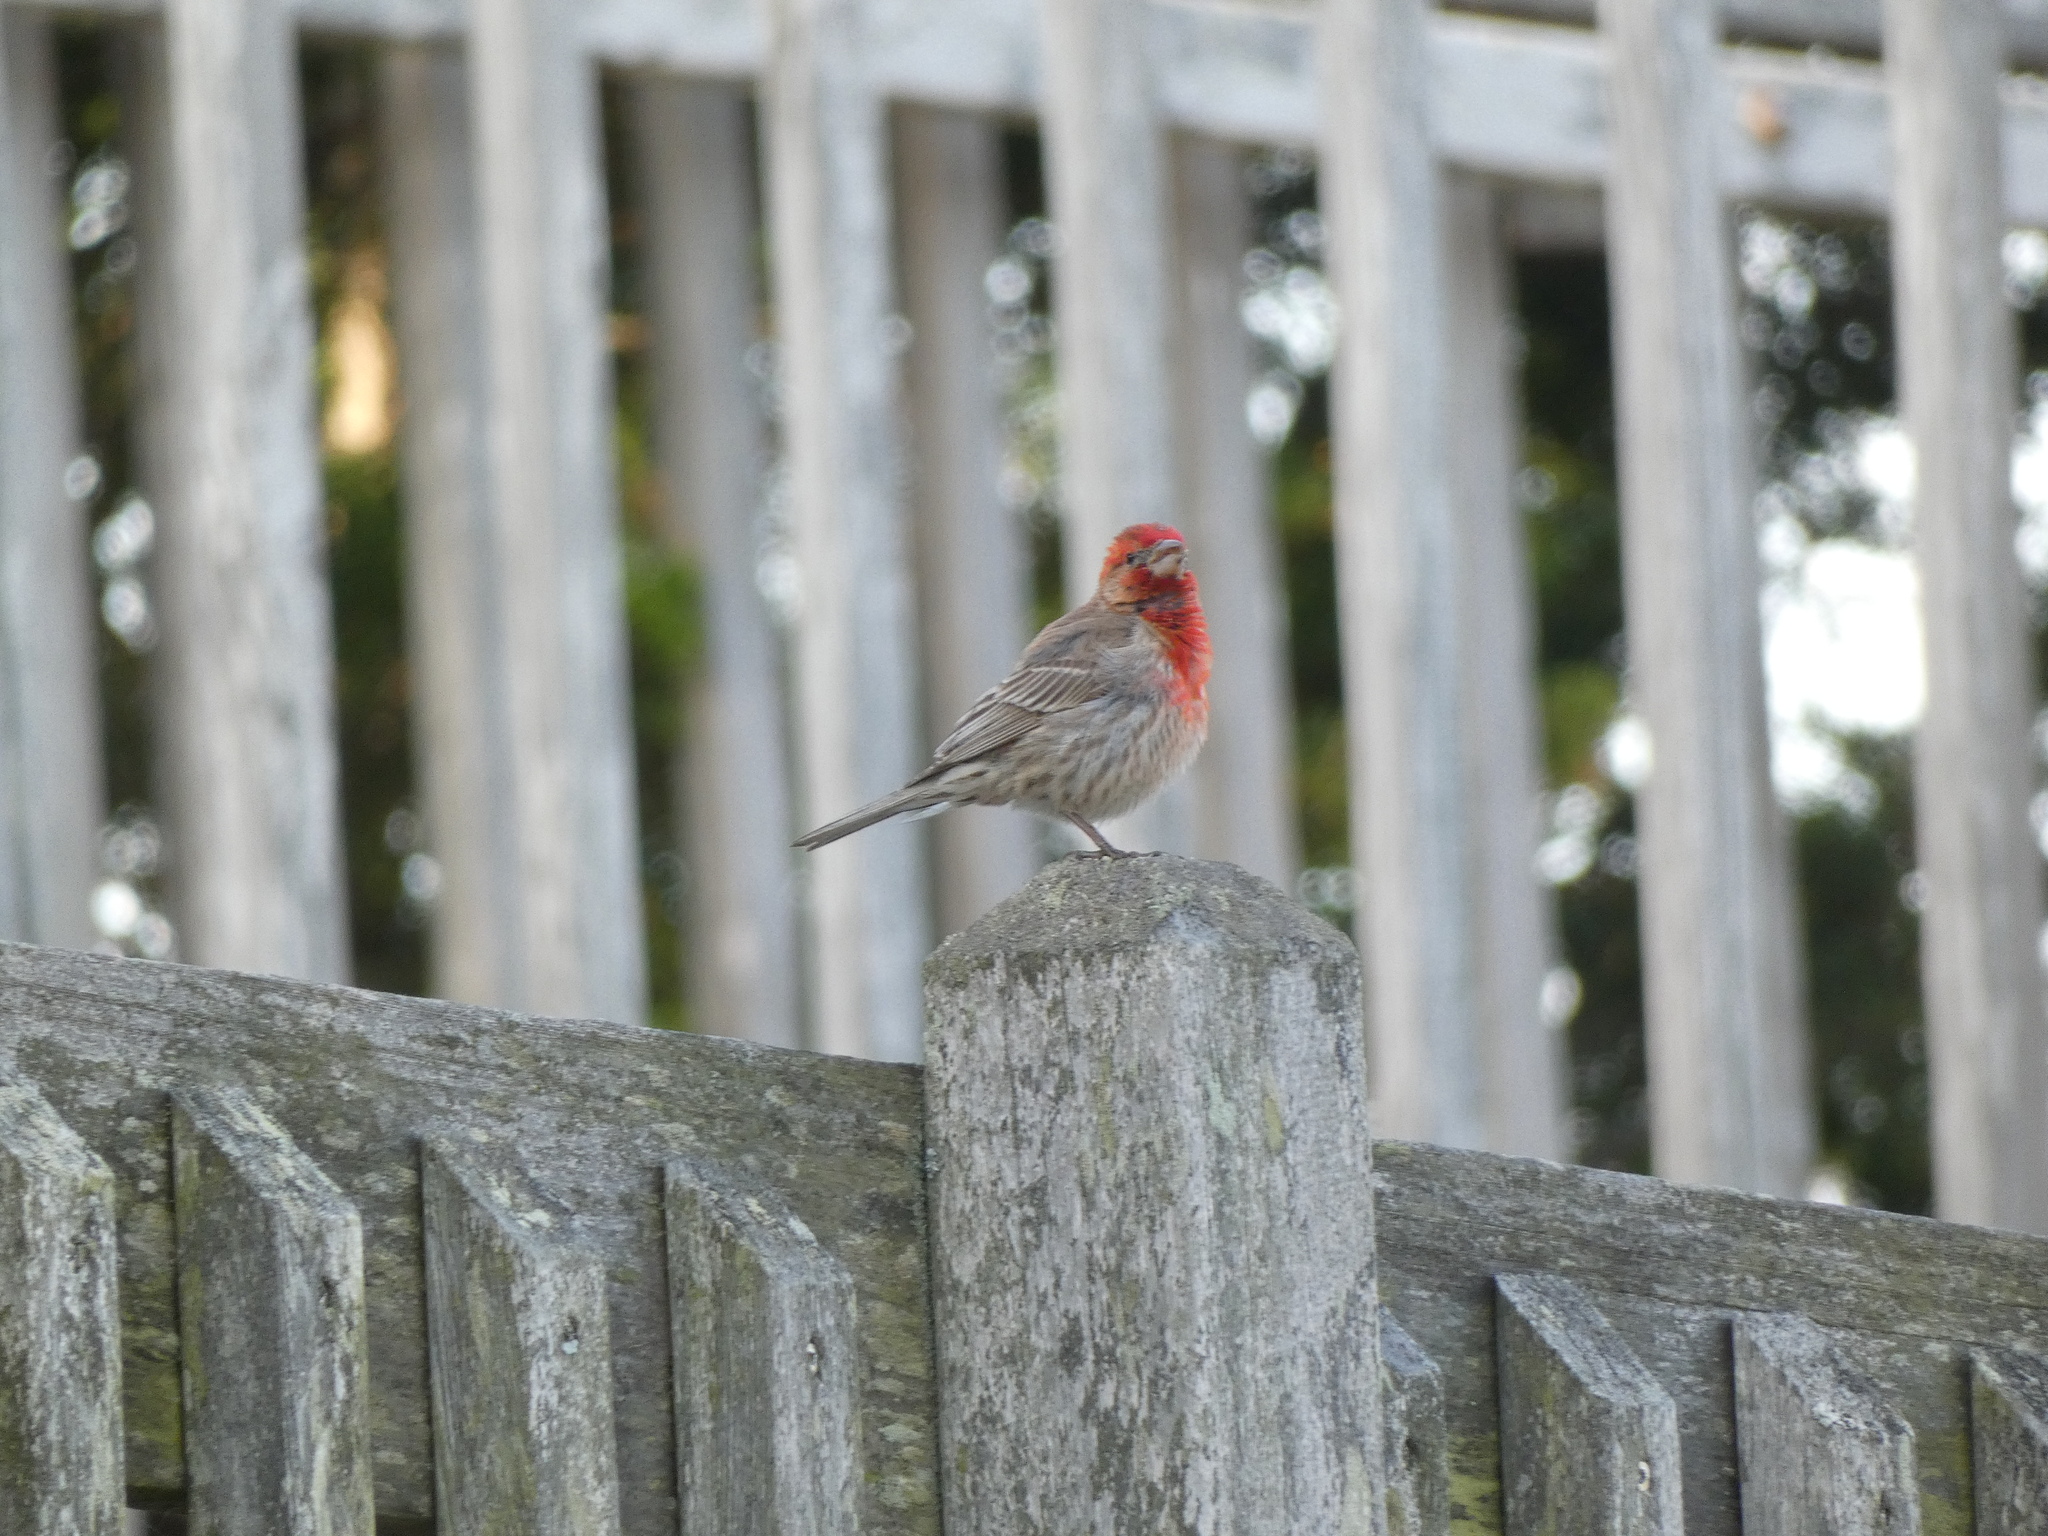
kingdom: Animalia
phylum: Chordata
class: Aves
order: Passeriformes
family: Fringillidae
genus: Haemorhous
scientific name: Haemorhous mexicanus
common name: House finch
